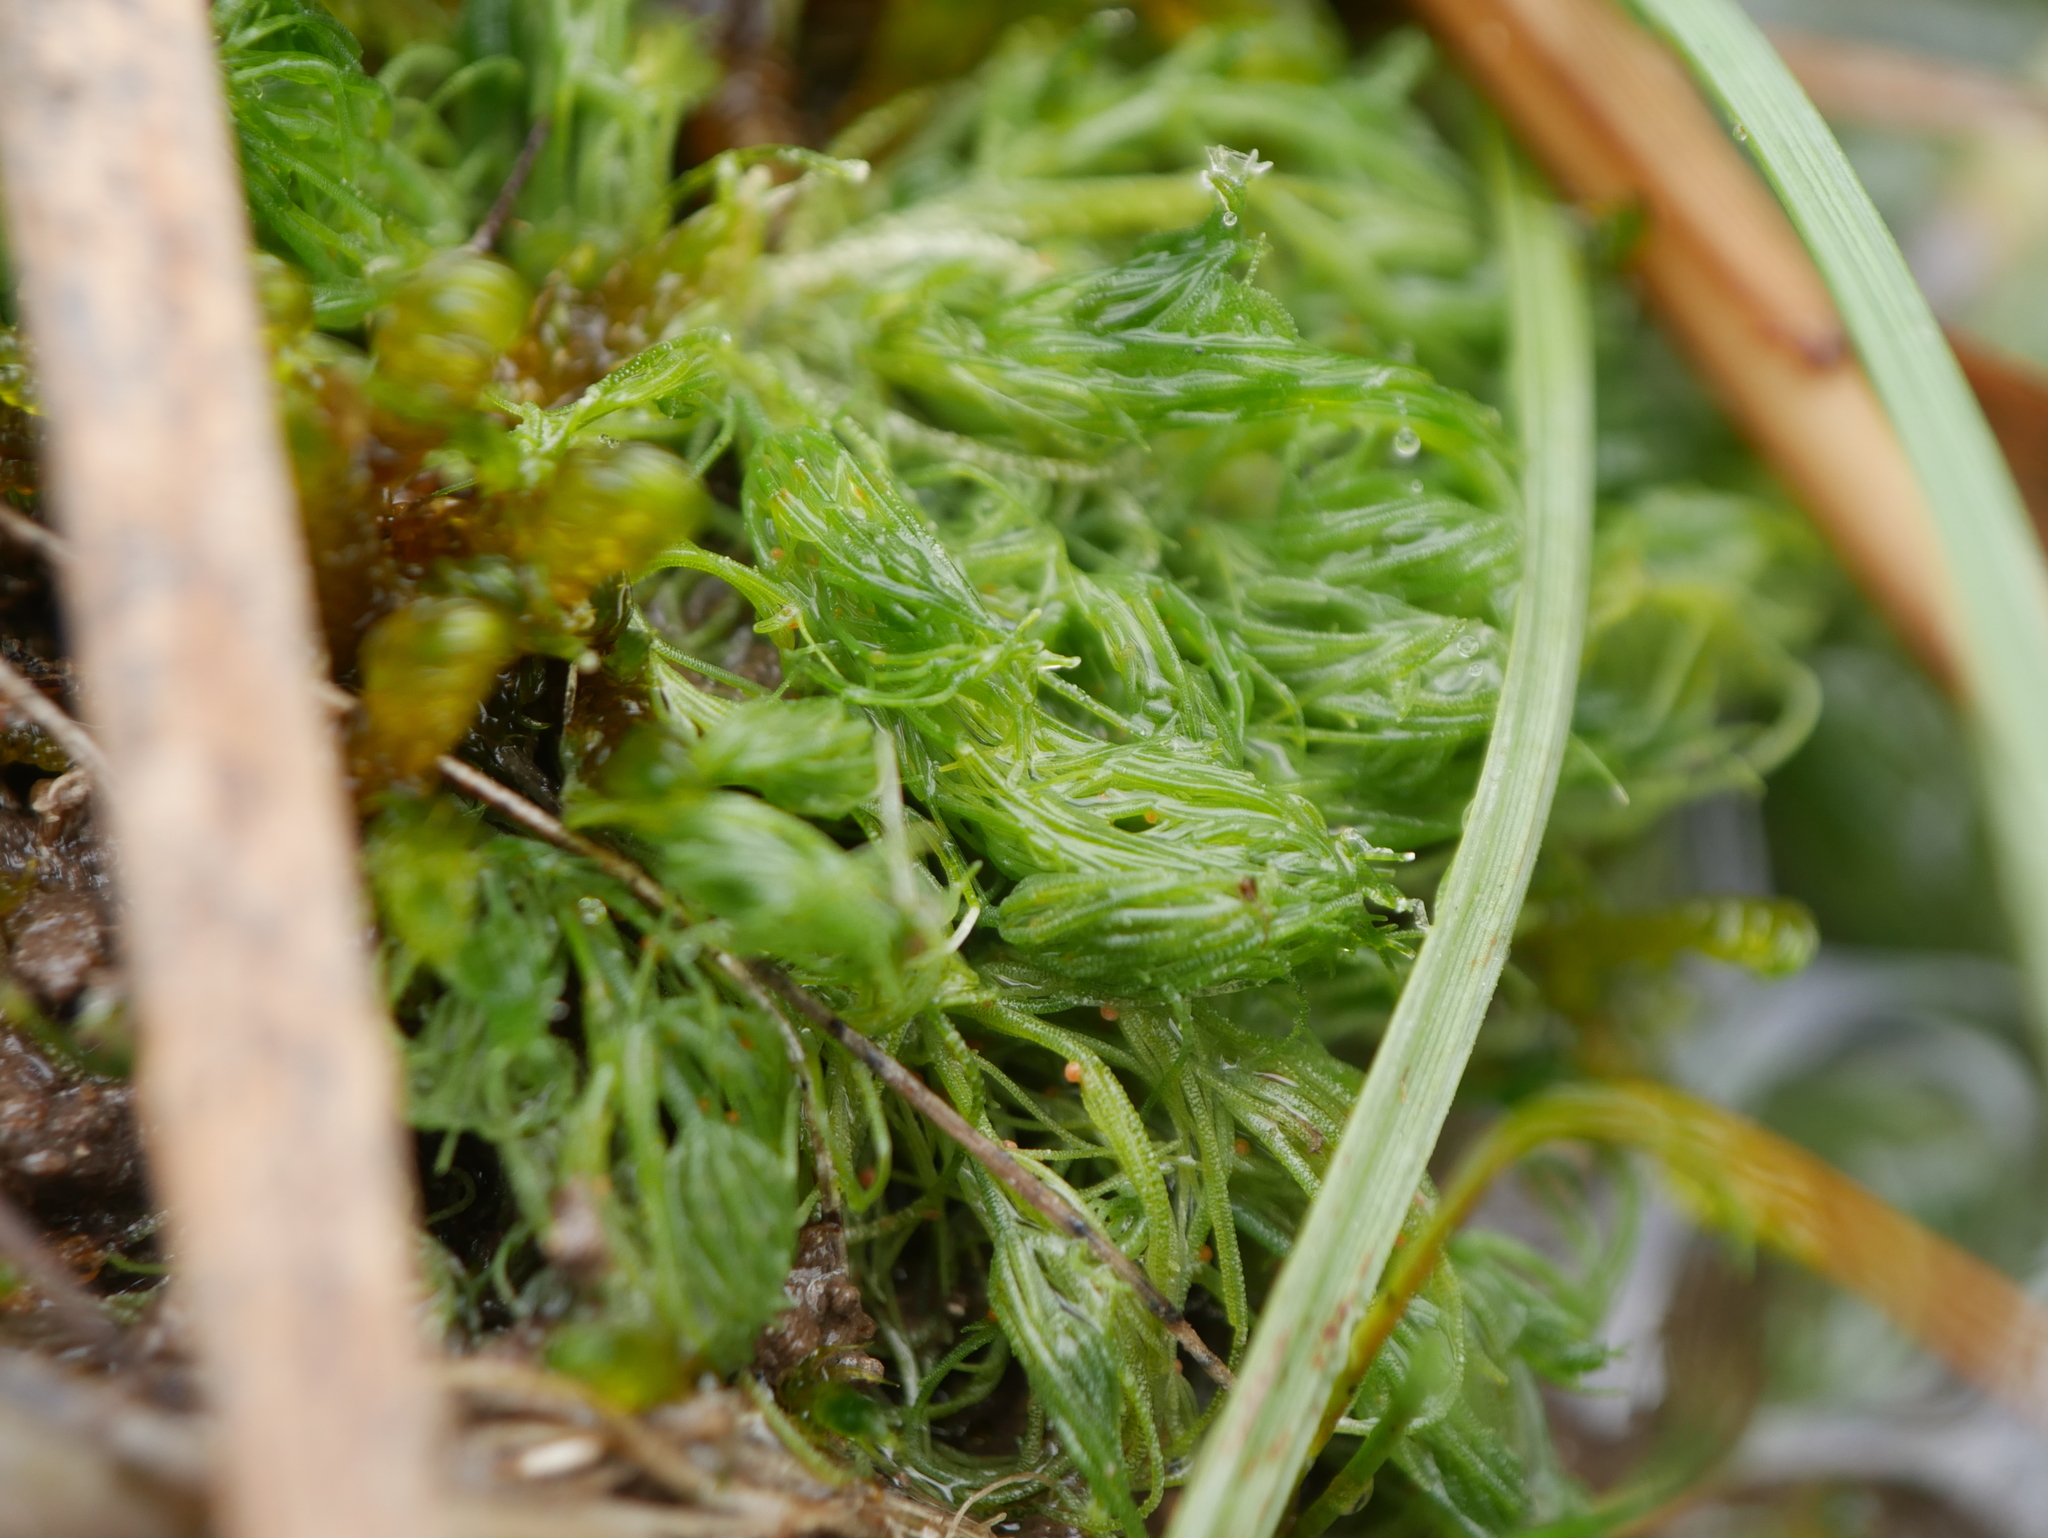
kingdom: Plantae
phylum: Charophyta
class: Charophyceae
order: Charales
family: Characeae
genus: Chara
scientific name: Chara vulgaris
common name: Common stonewort
